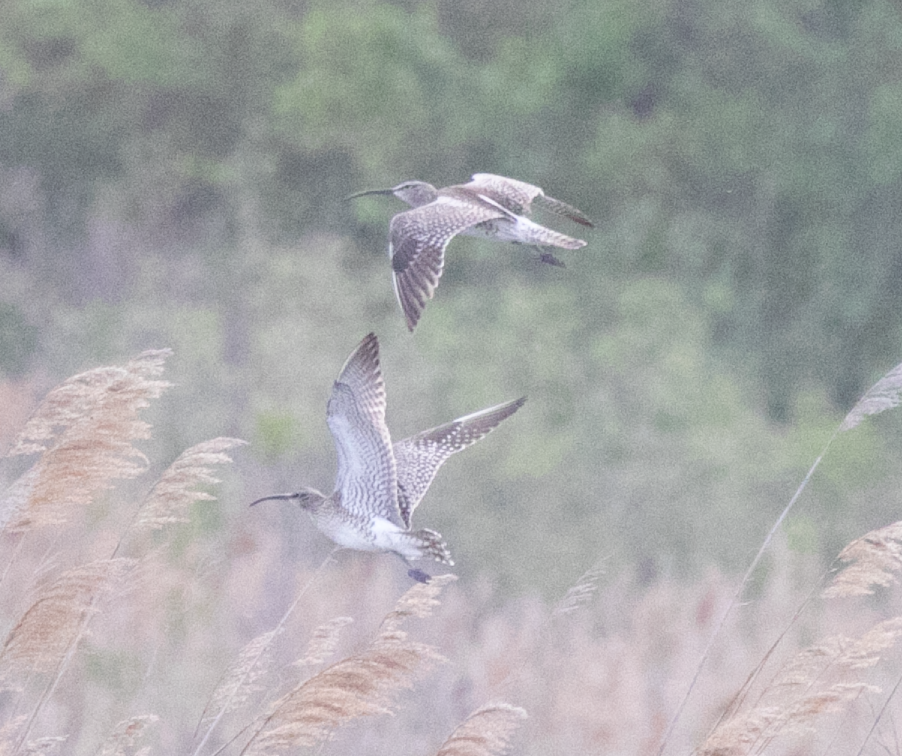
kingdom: Animalia
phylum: Chordata
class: Aves
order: Charadriiformes
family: Scolopacidae
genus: Numenius
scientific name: Numenius phaeopus
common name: Whimbrel
